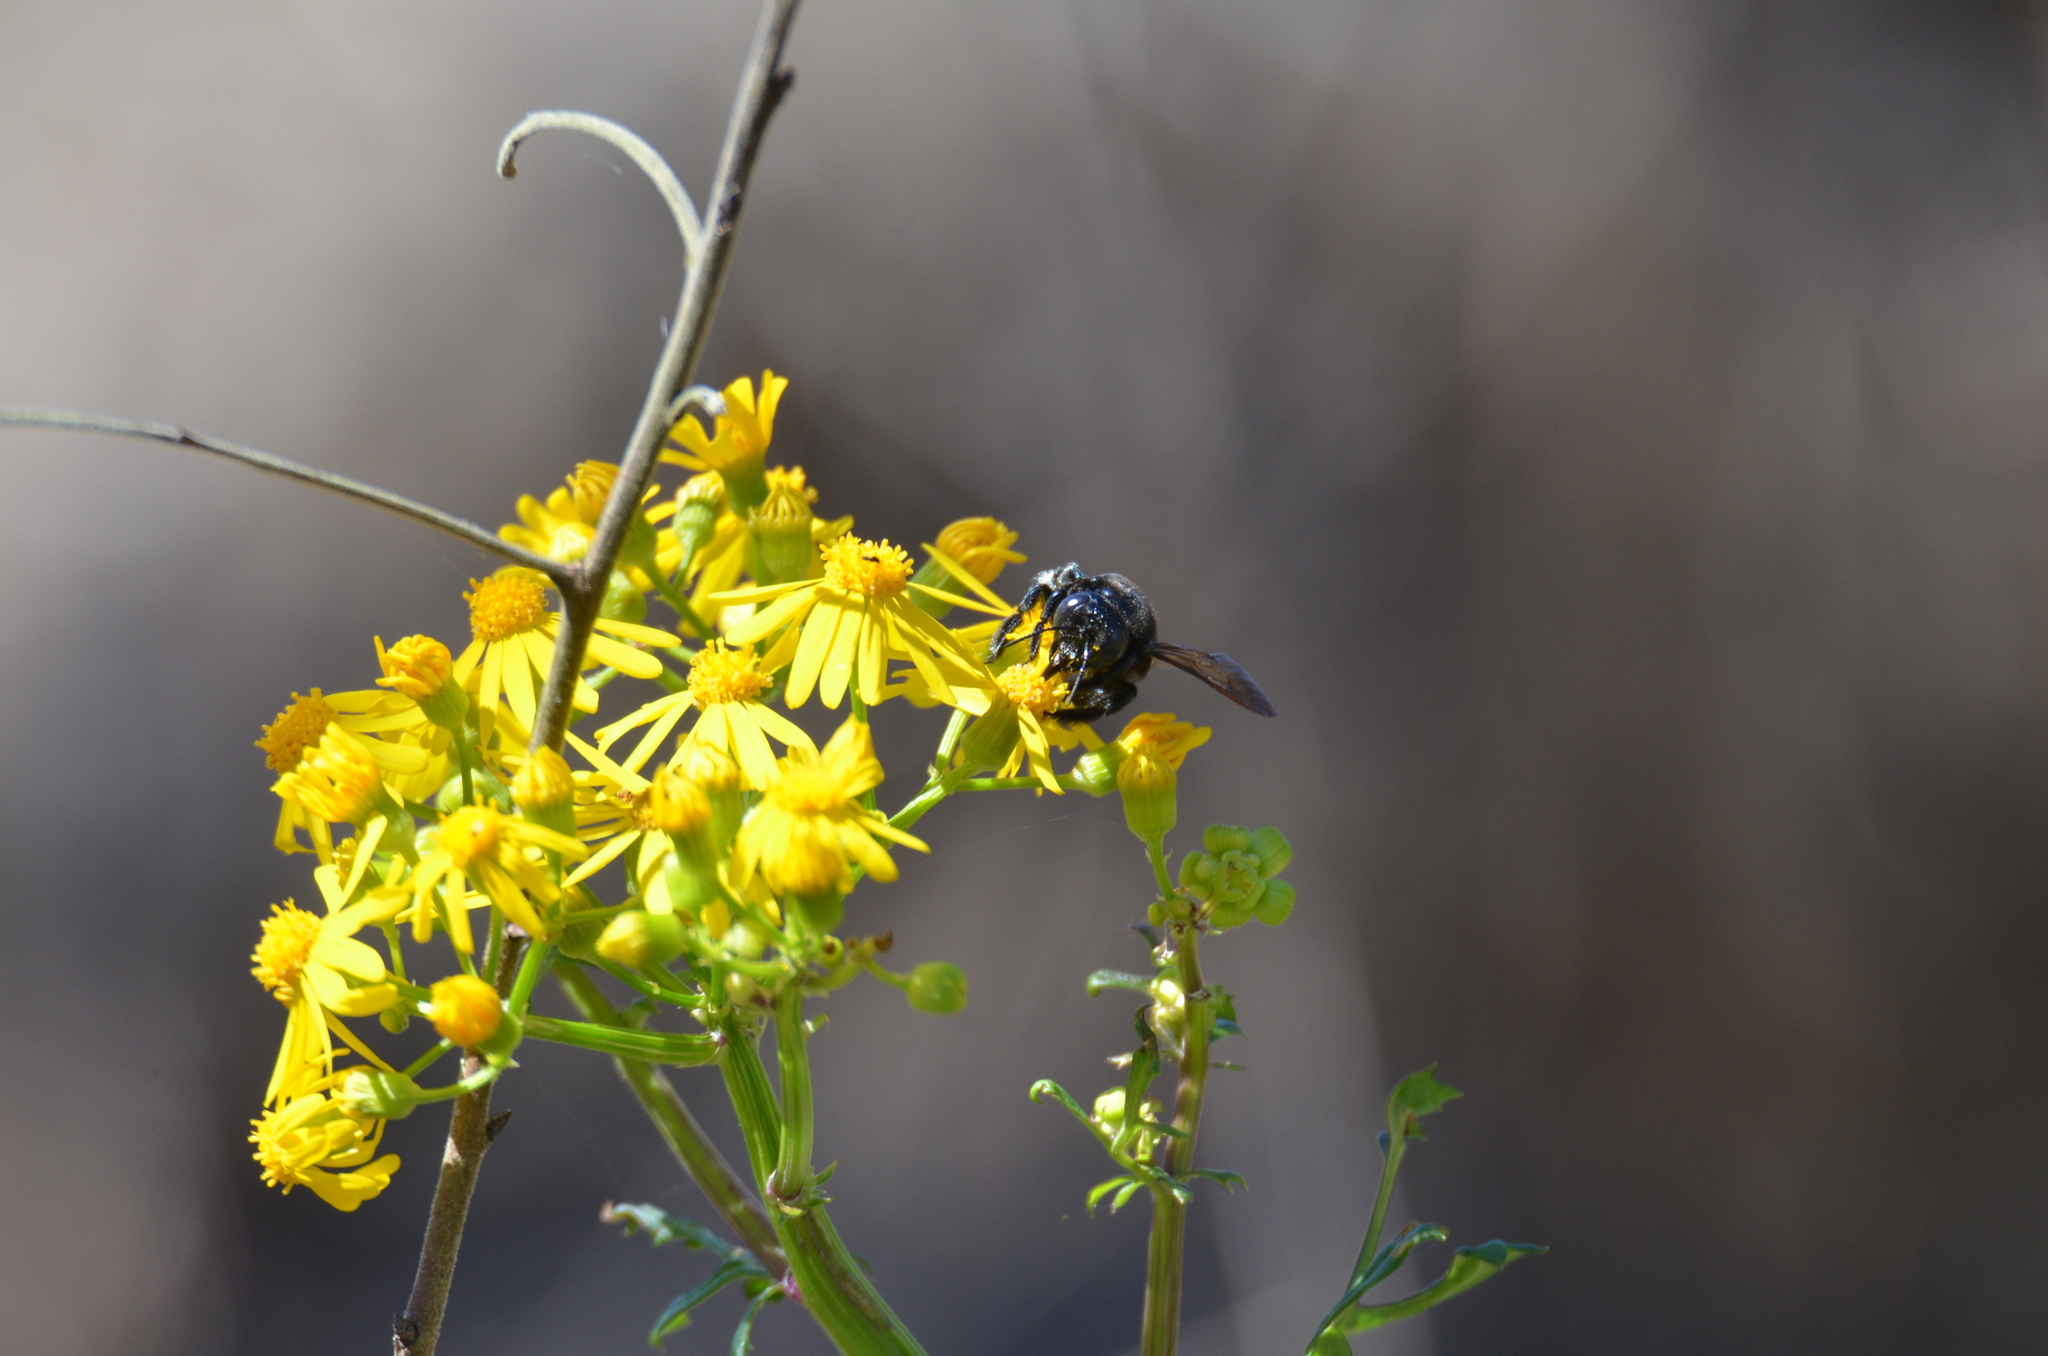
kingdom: Animalia
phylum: Arthropoda
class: Insecta
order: Hymenoptera
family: Apidae
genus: Xylocopa
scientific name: Xylocopa micans
